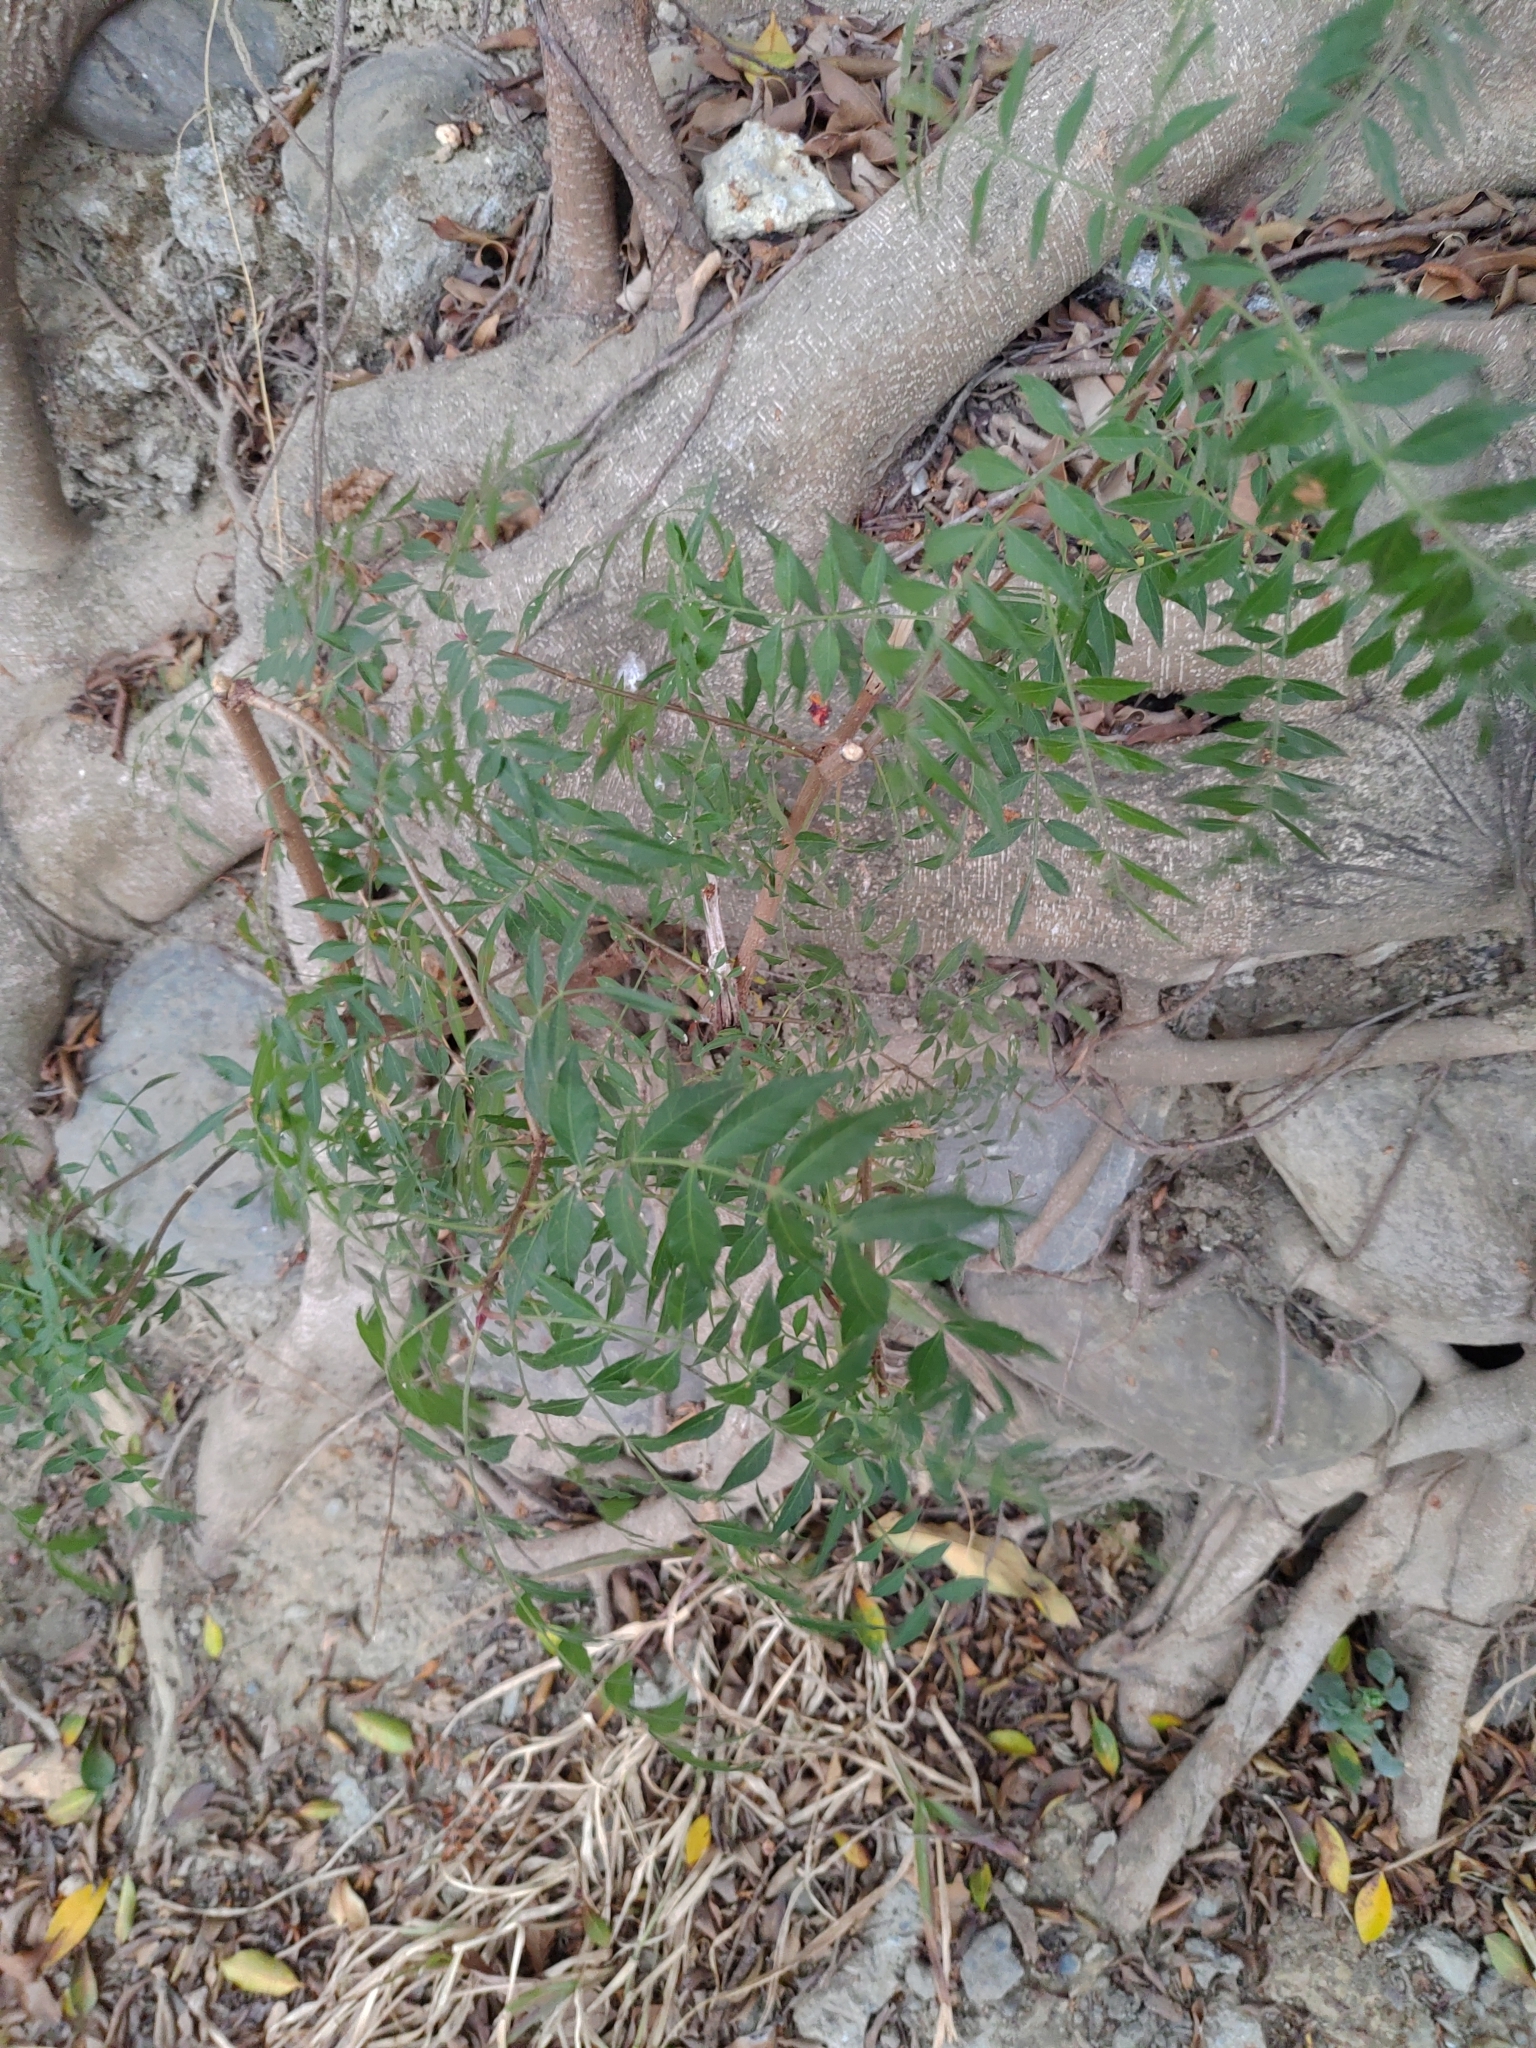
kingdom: Plantae
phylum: Tracheophyta
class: Magnoliopsida
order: Sapindales
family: Anacardiaceae
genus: Pistacia
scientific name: Pistacia chinensis
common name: Chinese pistache
